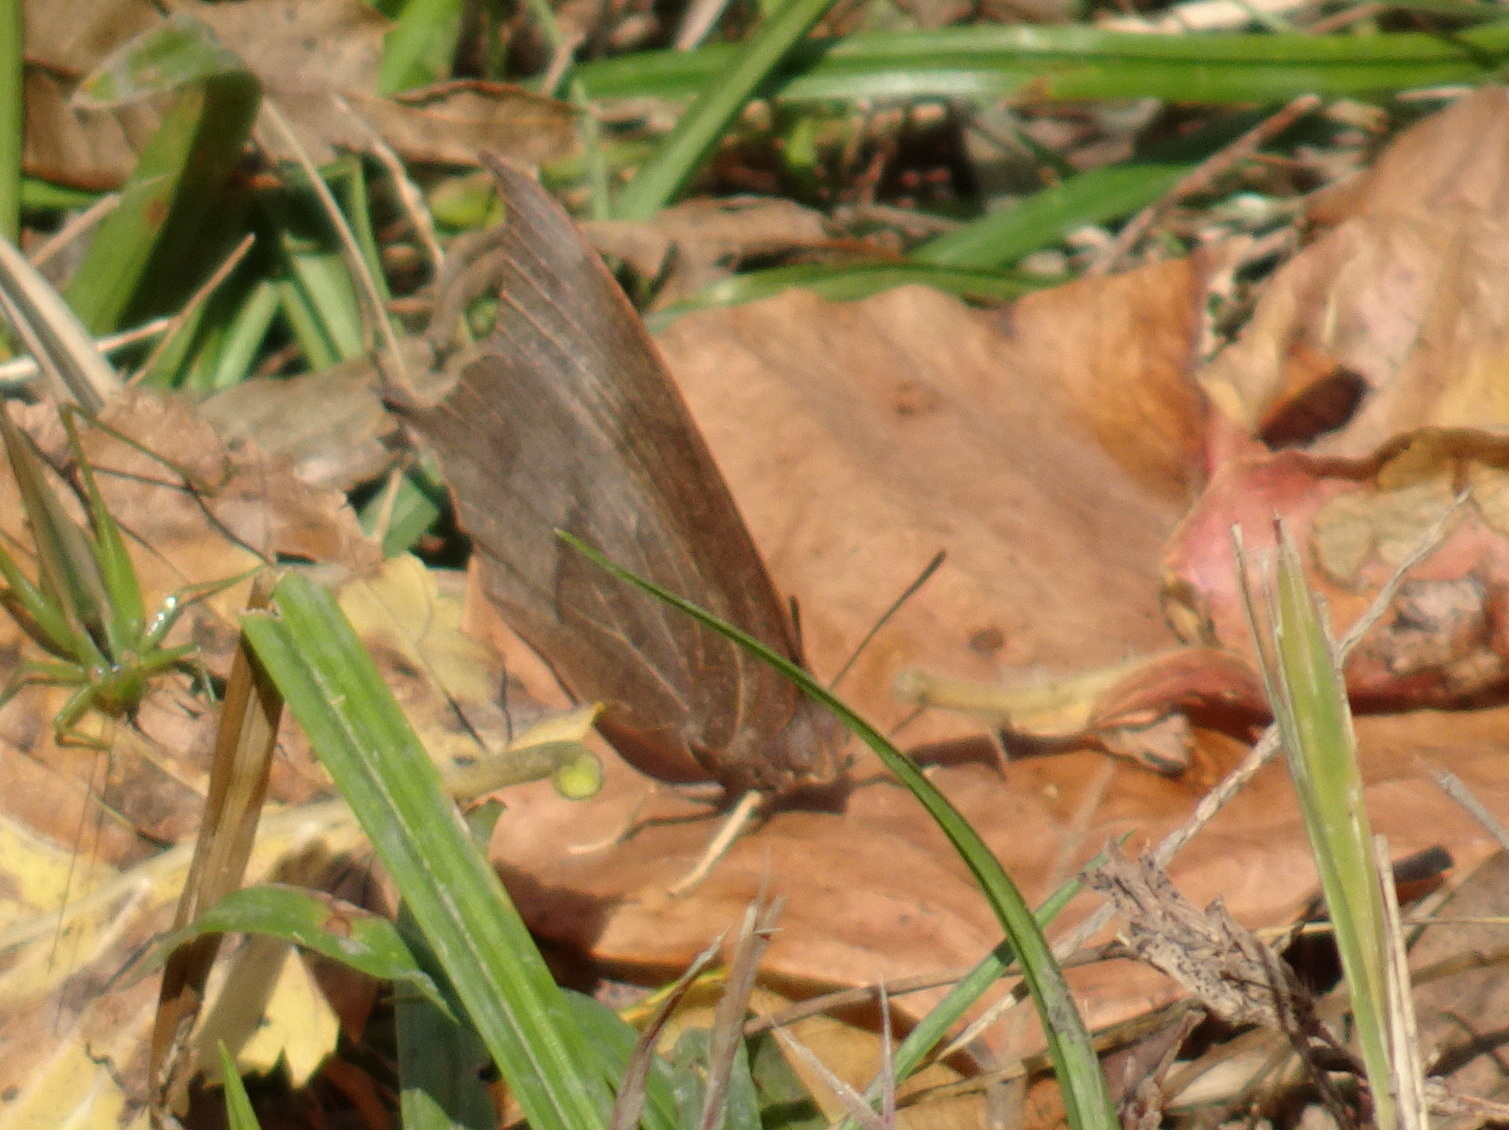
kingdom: Animalia
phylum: Arthropoda
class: Insecta
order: Lepidoptera
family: Nymphalidae
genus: Anaea
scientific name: Anaea andria
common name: Goatweed leafwing
